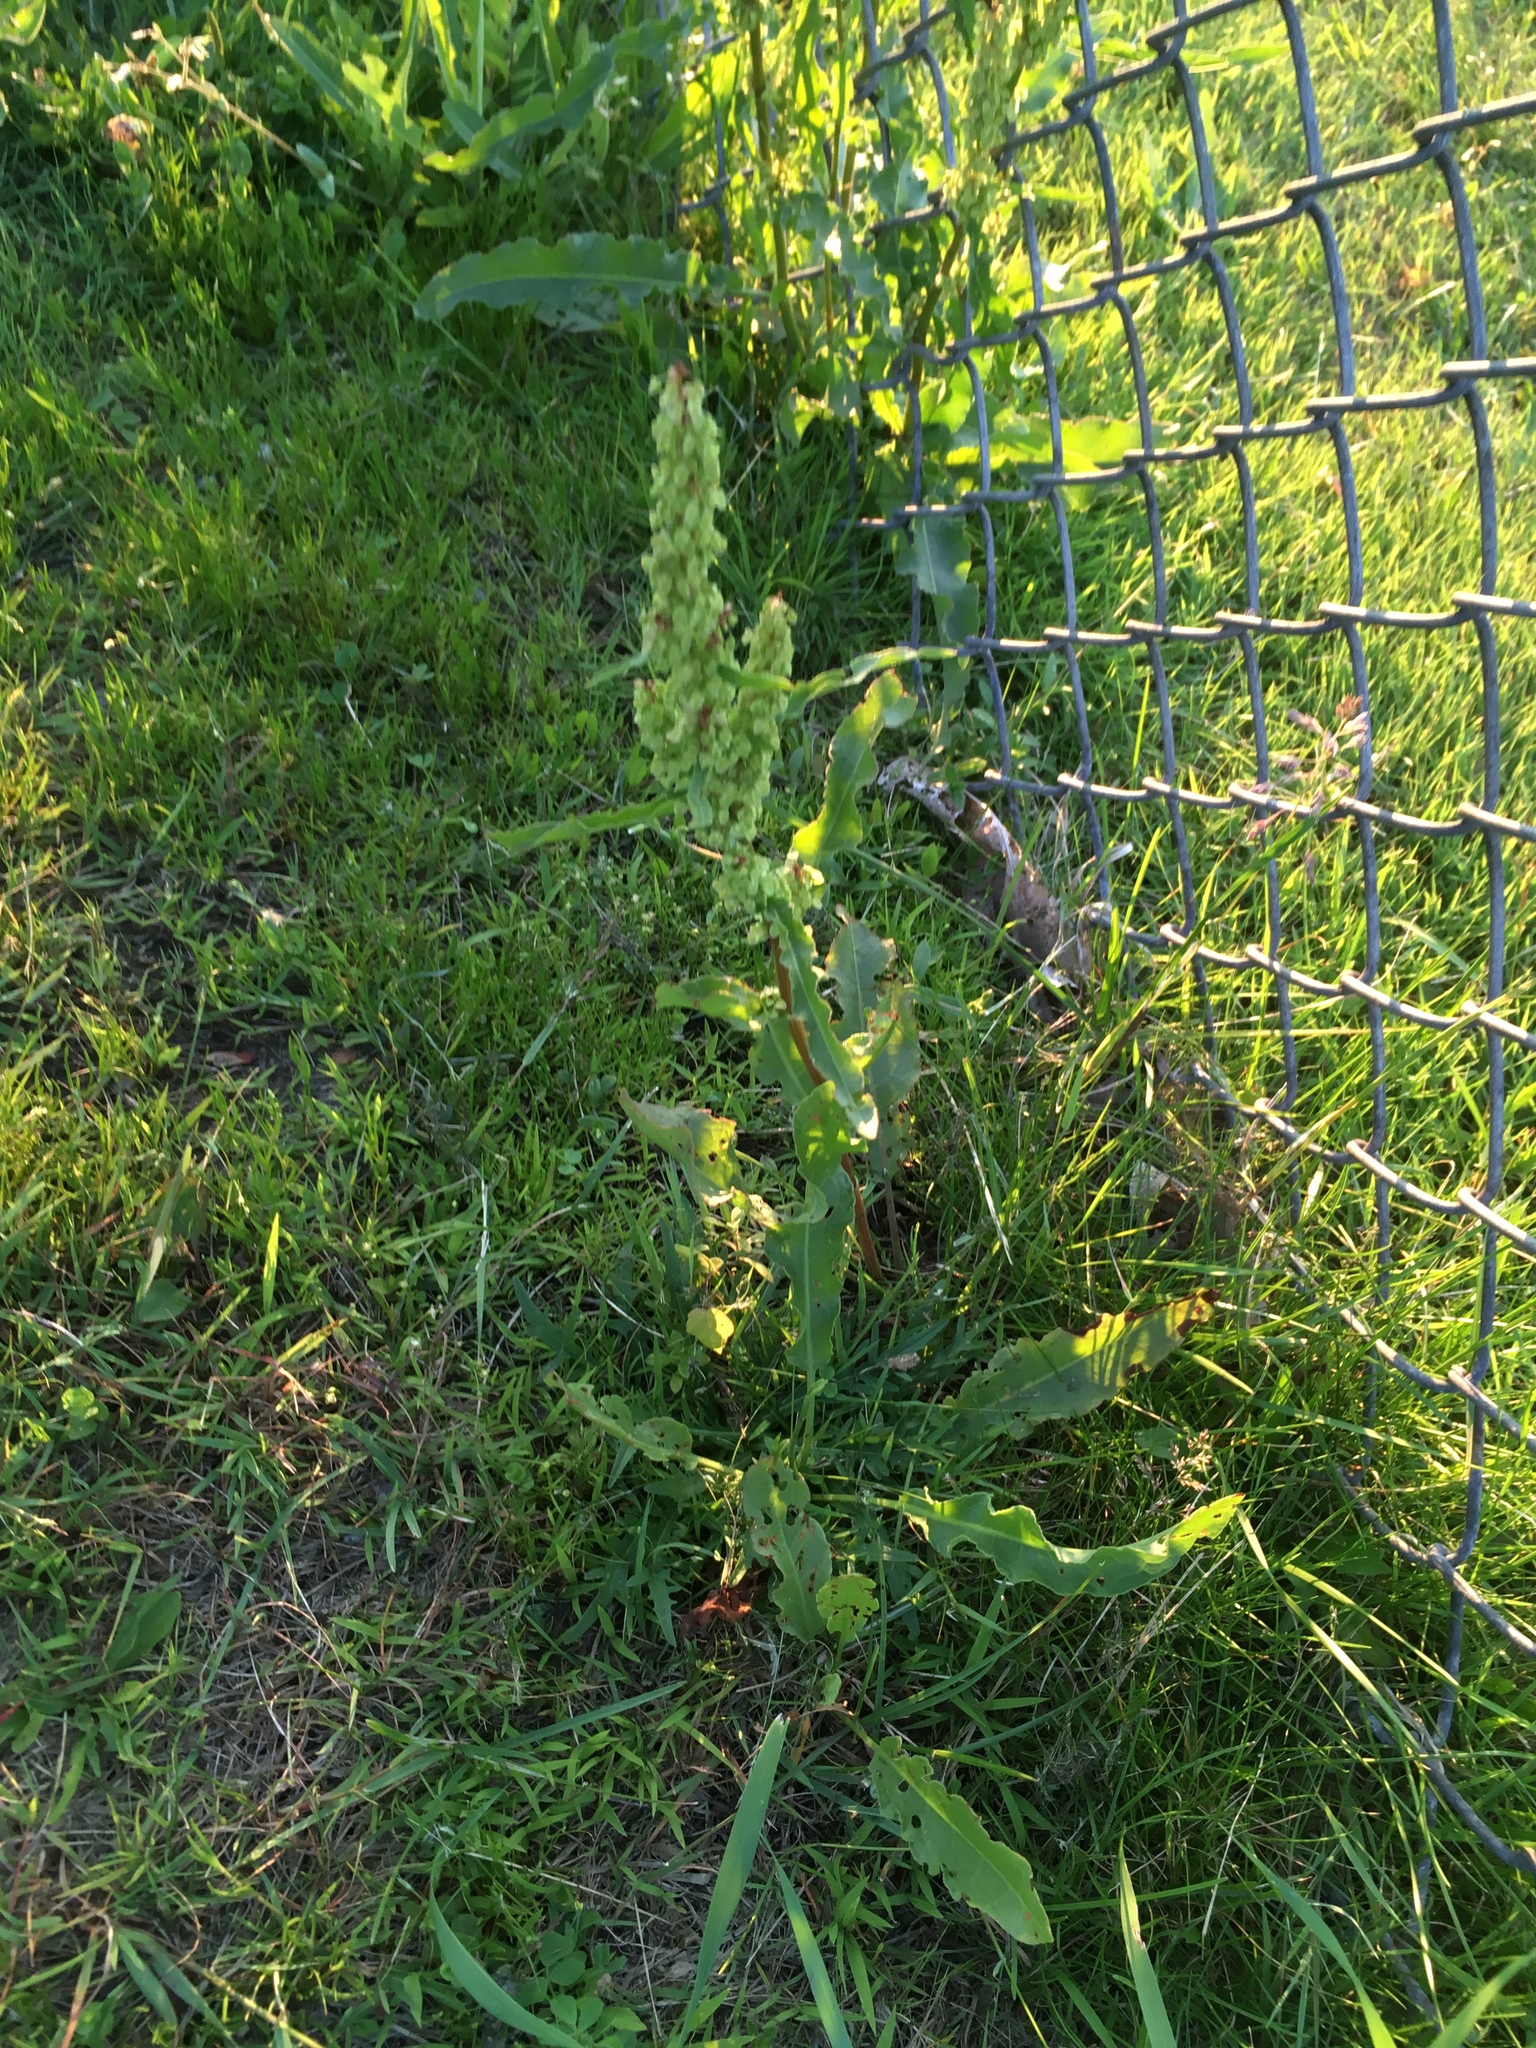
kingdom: Plantae
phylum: Tracheophyta
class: Magnoliopsida
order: Caryophyllales
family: Polygonaceae
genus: Rumex
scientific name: Rumex crispus
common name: Curled dock
